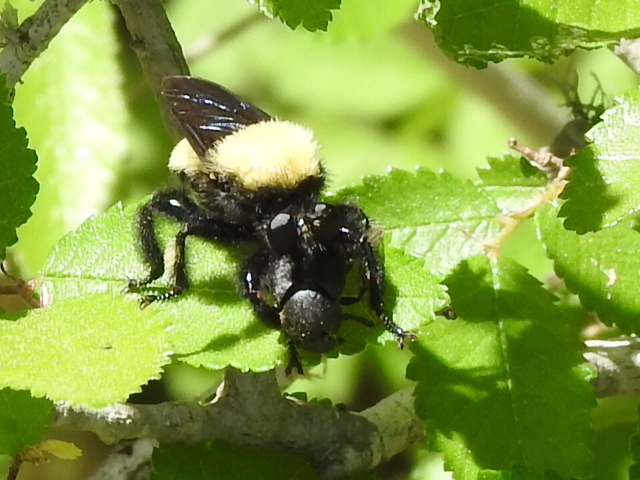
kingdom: Animalia
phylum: Arthropoda
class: Insecta
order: Diptera
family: Asilidae
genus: Laphria
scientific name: Laphria macquarti
